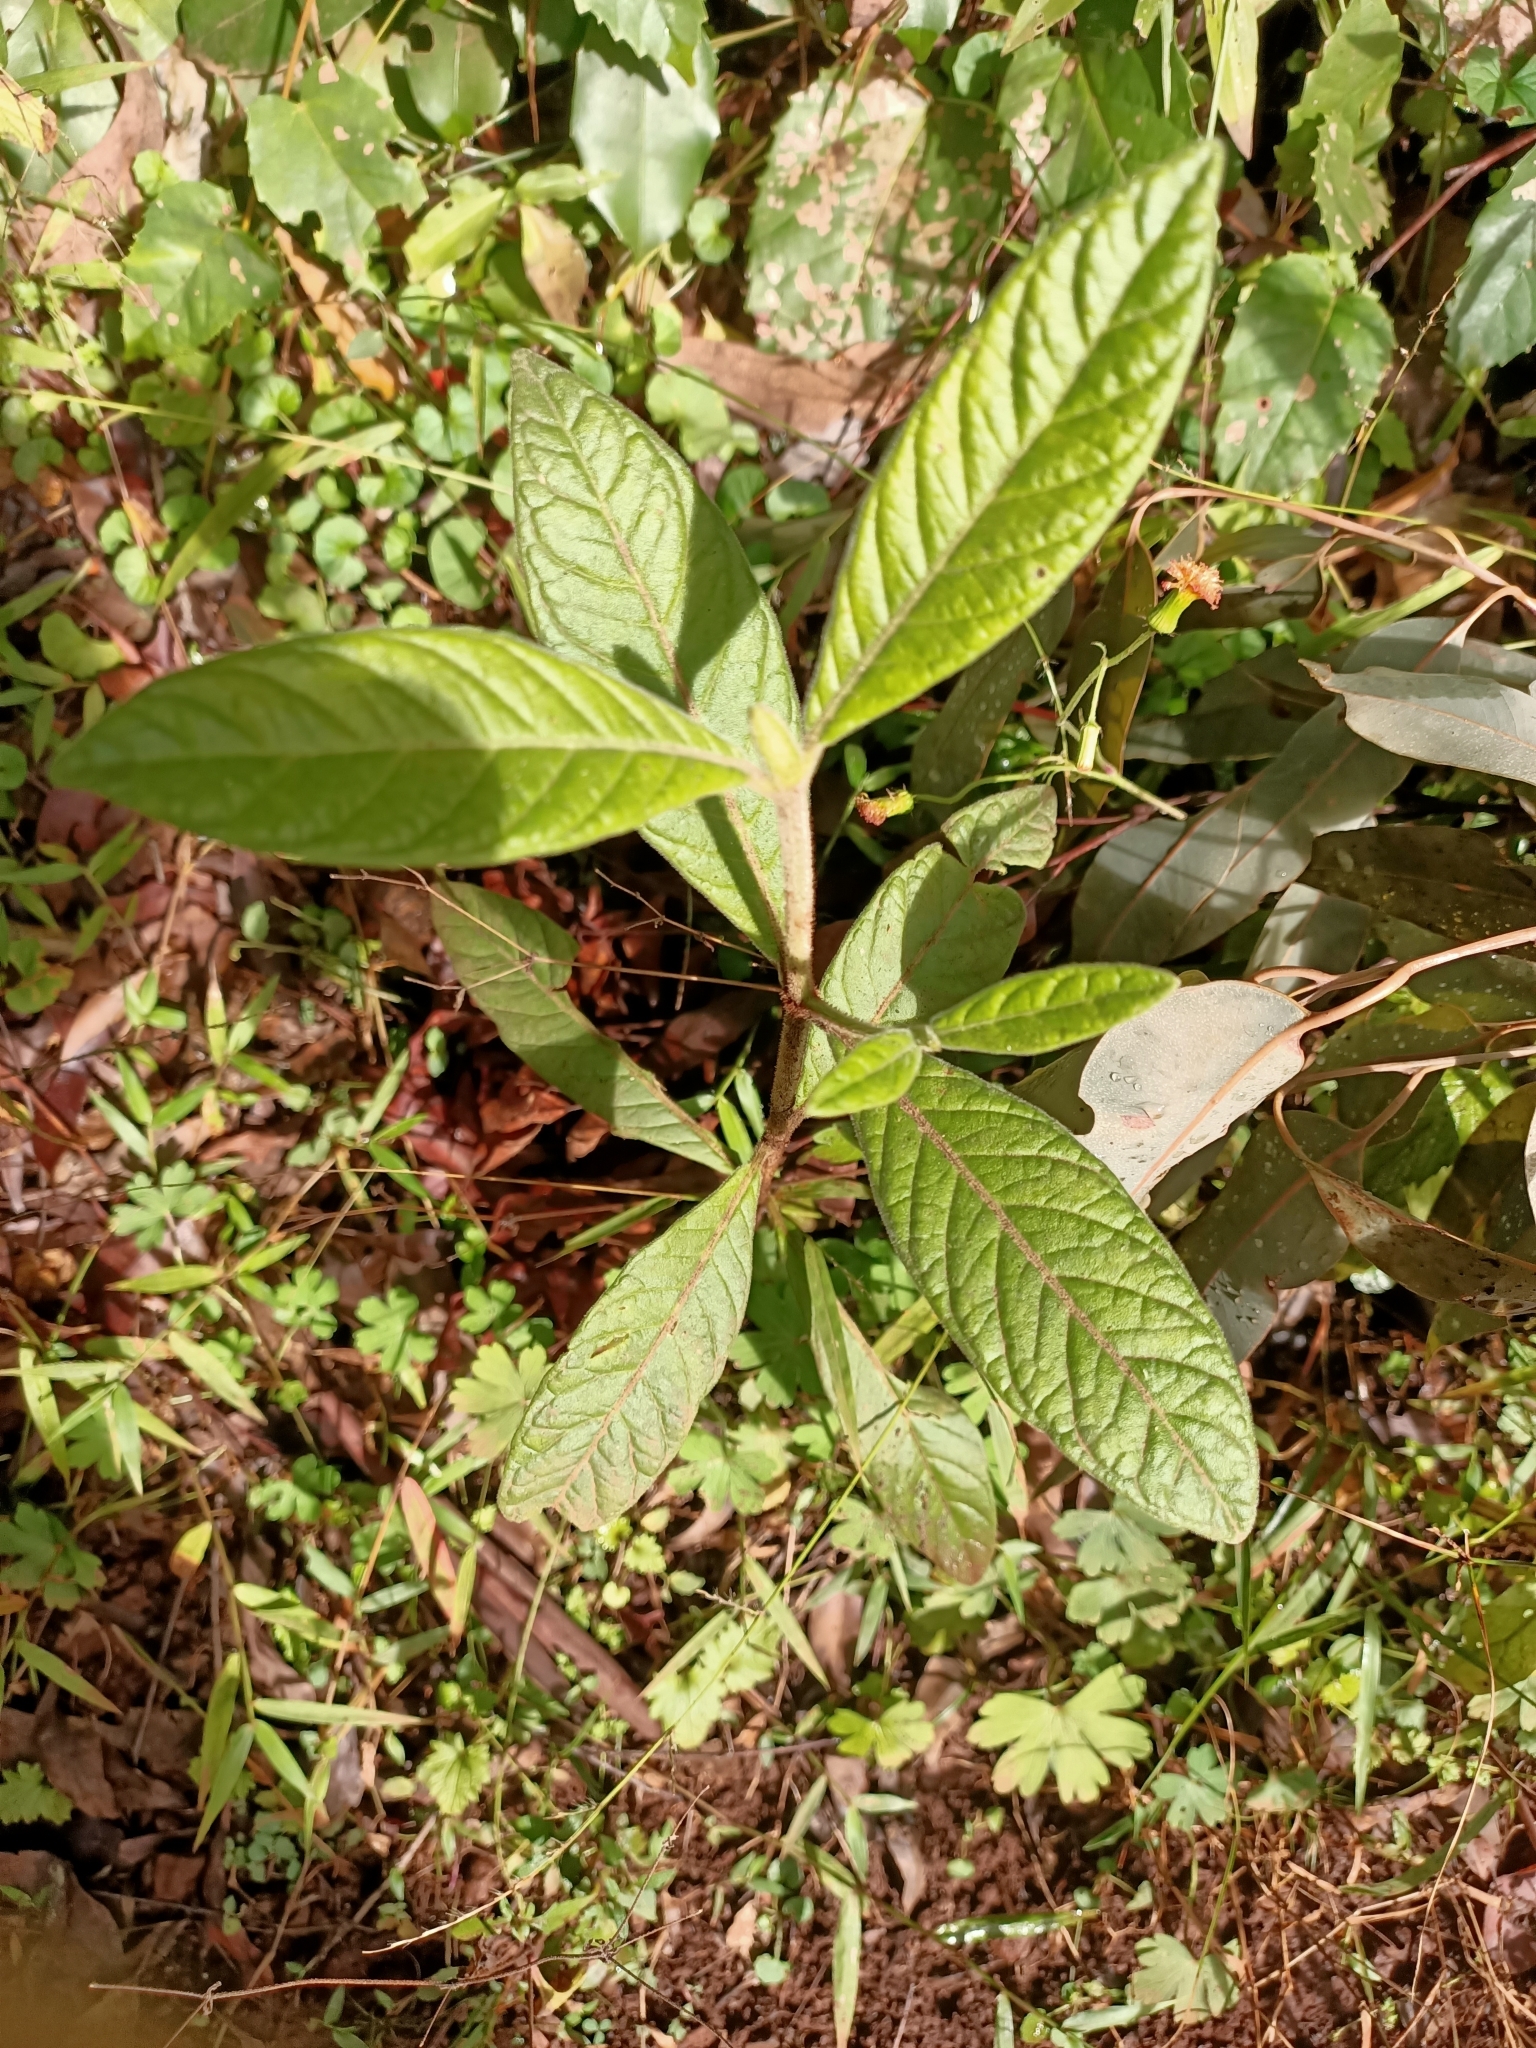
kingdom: Plantae
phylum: Tracheophyta
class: Magnoliopsida
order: Gentianales
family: Rubiaceae
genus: Psychotria
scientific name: Psychotria loniceroides
